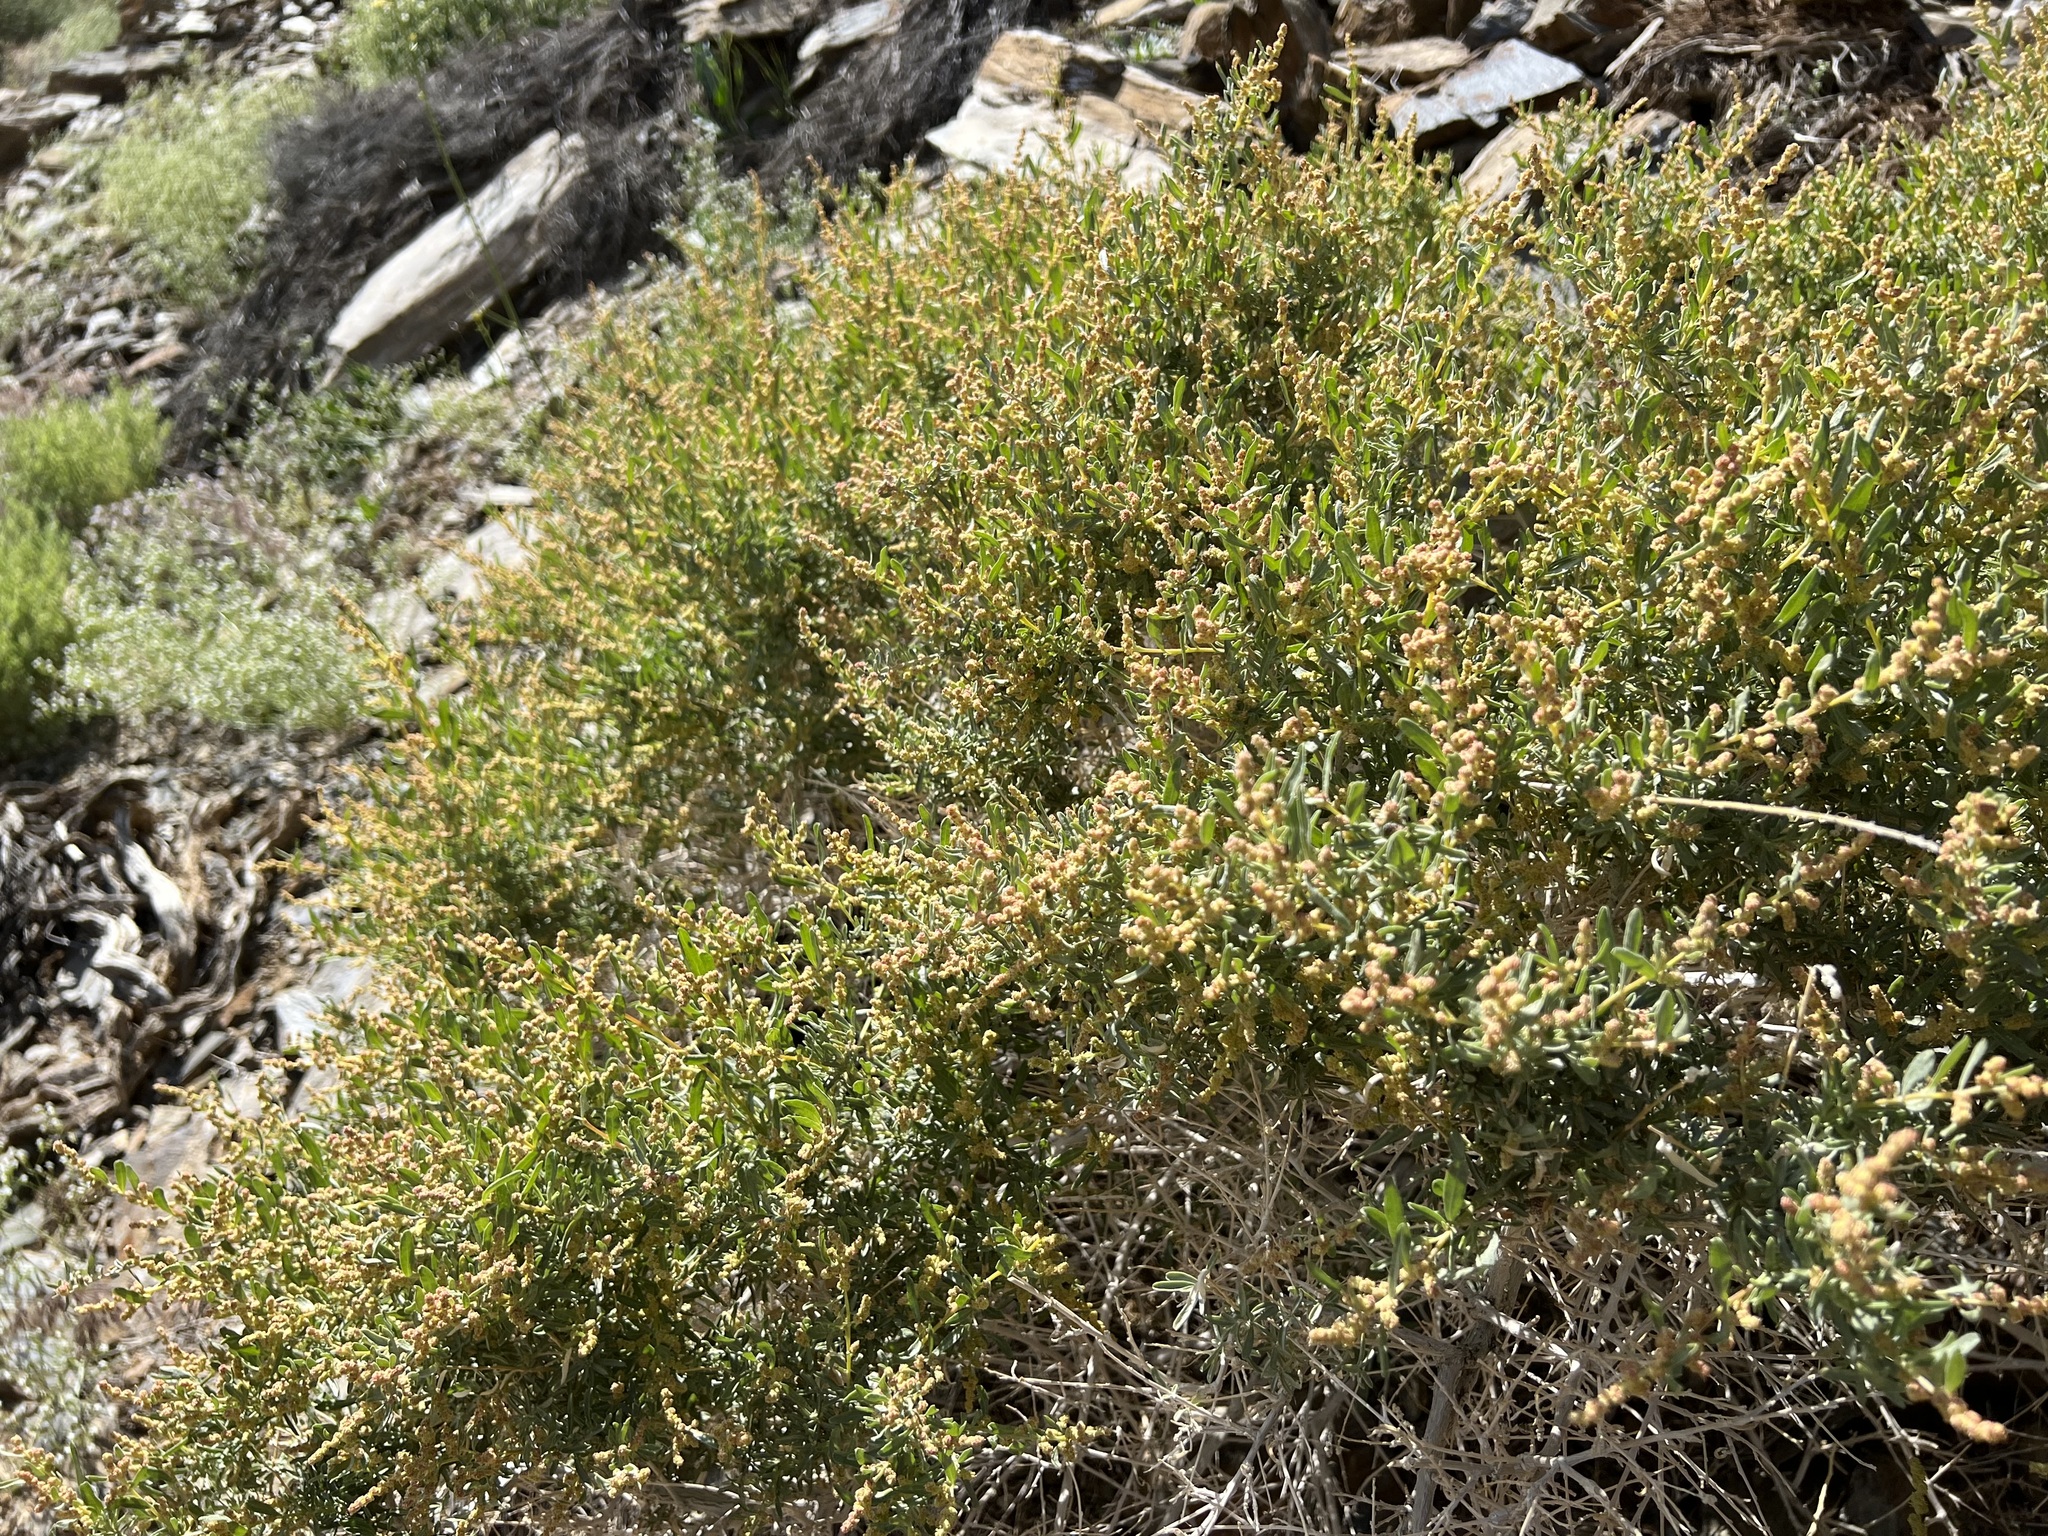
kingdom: Plantae
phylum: Tracheophyta
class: Magnoliopsida
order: Caryophyllales
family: Amaranthaceae
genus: Atriplex
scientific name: Atriplex canescens
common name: Four-wing saltbush
